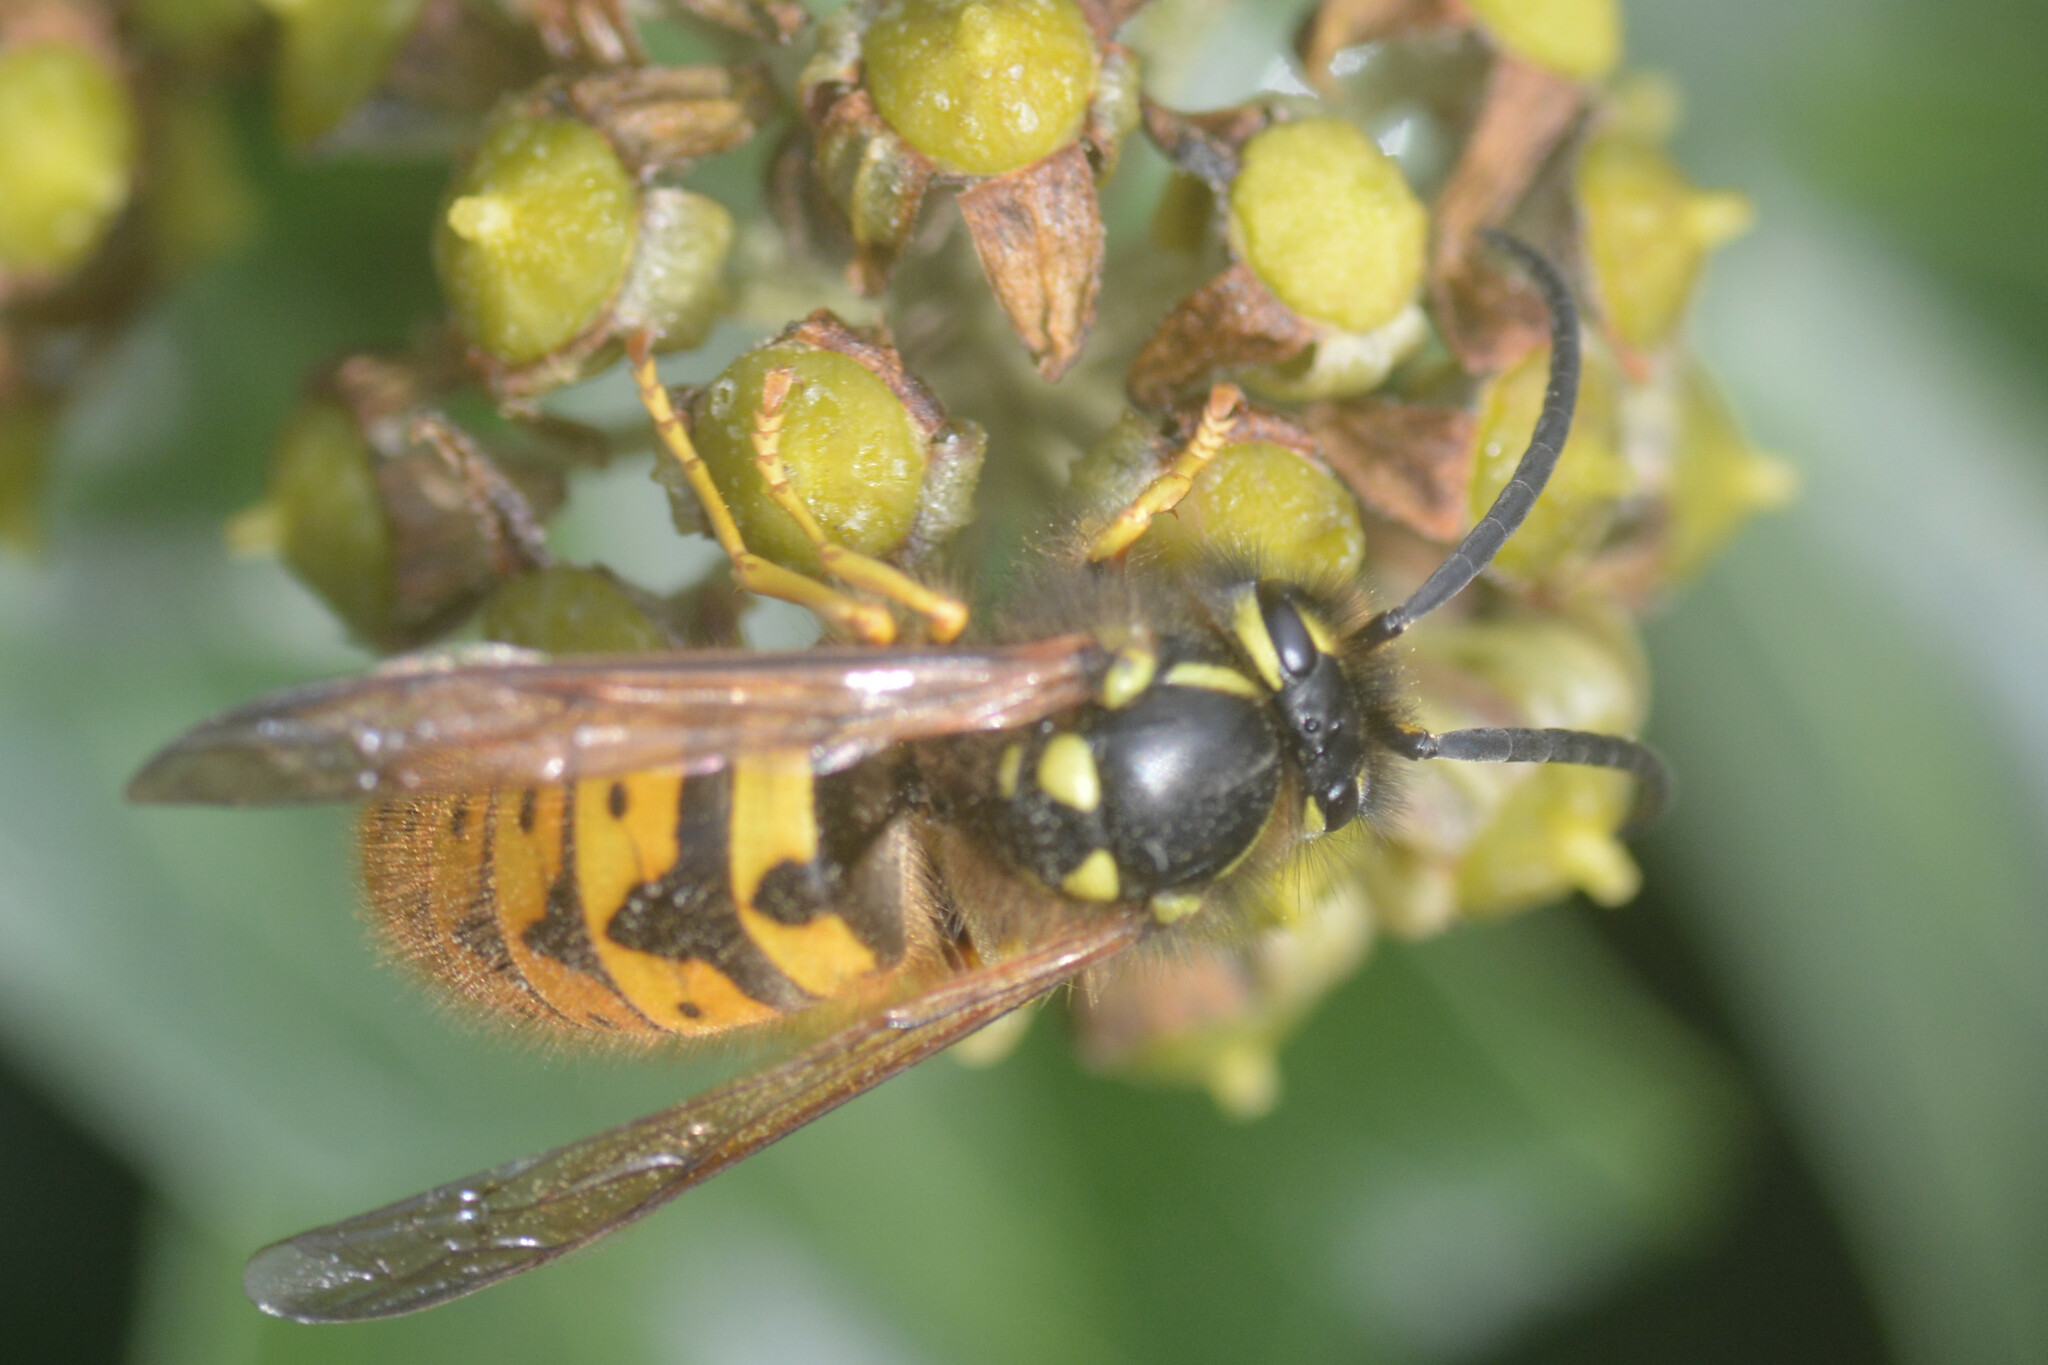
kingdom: Animalia
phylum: Arthropoda
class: Insecta
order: Hymenoptera
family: Vespidae
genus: Vespula
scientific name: Vespula germanica
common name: German wasp
